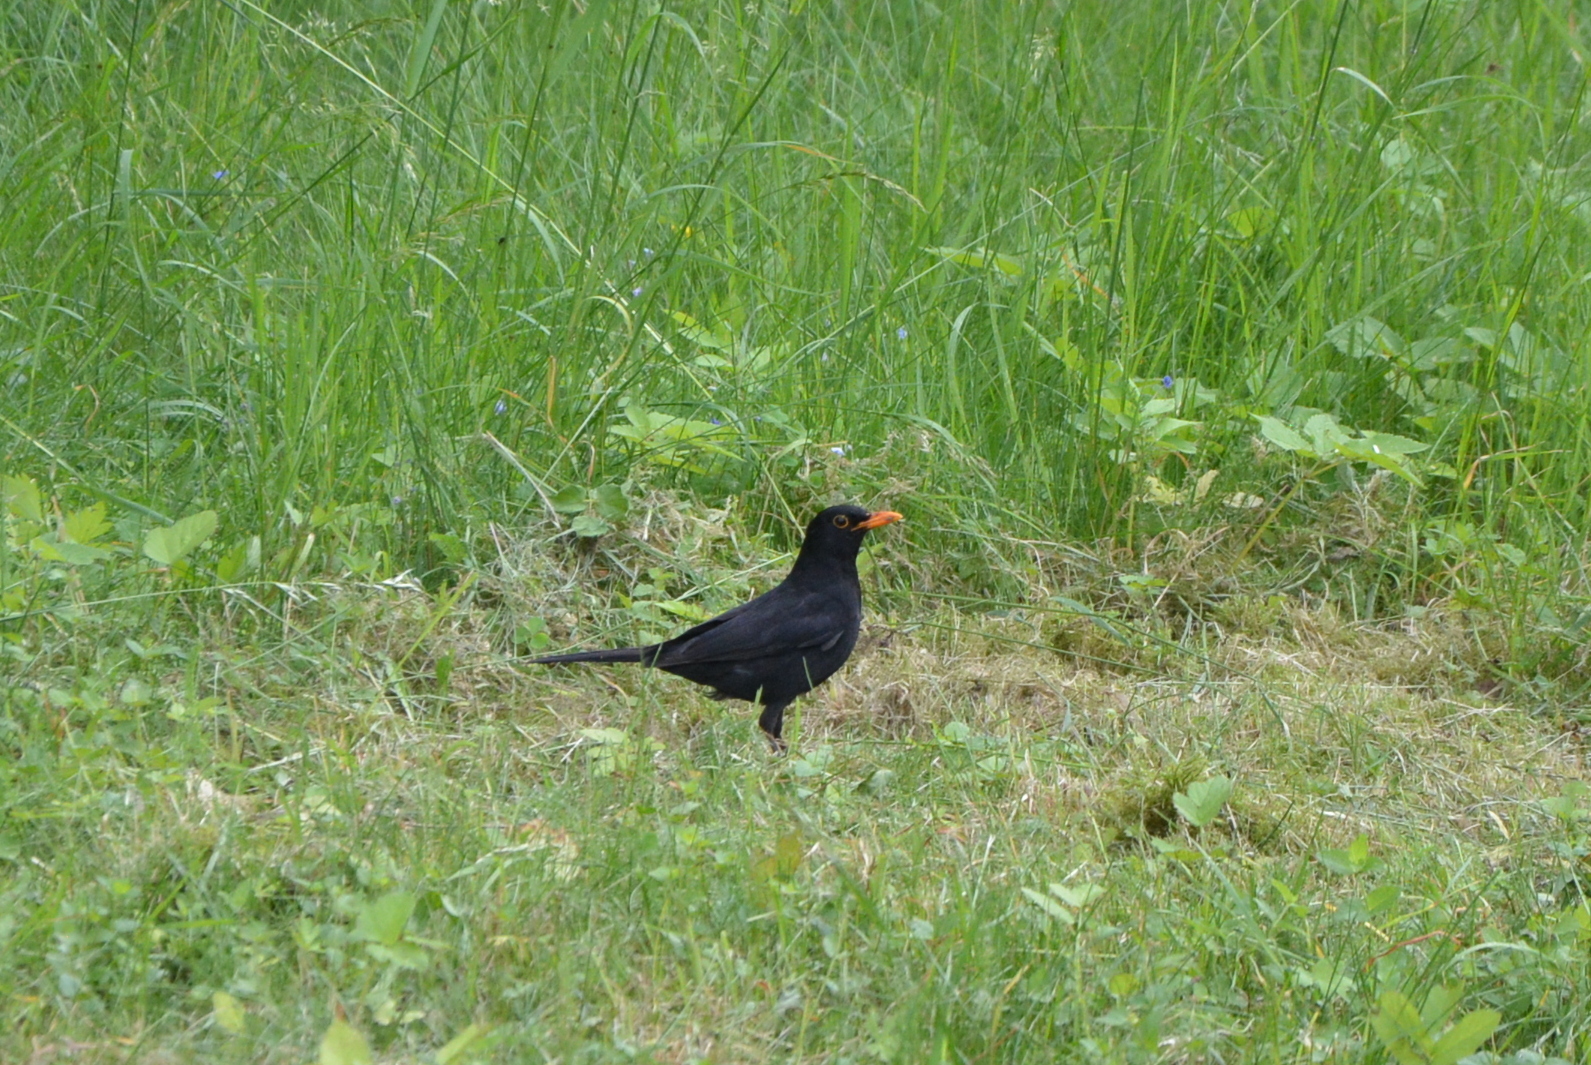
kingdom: Animalia
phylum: Chordata
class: Aves
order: Passeriformes
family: Turdidae
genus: Turdus
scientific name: Turdus merula
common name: Common blackbird
